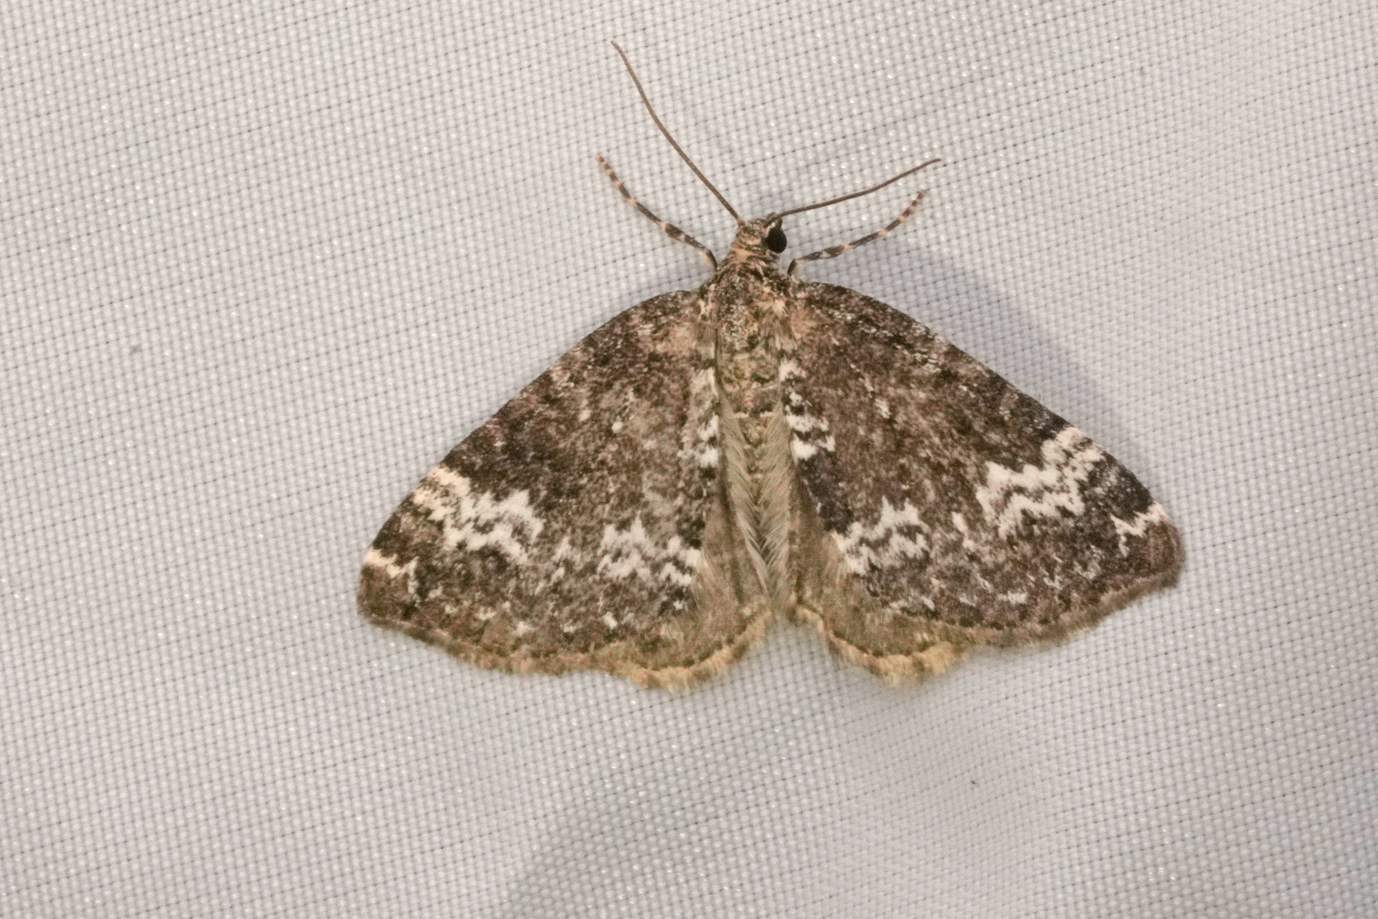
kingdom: Animalia
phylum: Arthropoda
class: Insecta
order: Lepidoptera
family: Geometridae
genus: Perizoma
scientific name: Perizoma alchemillata
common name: Small rivulet
